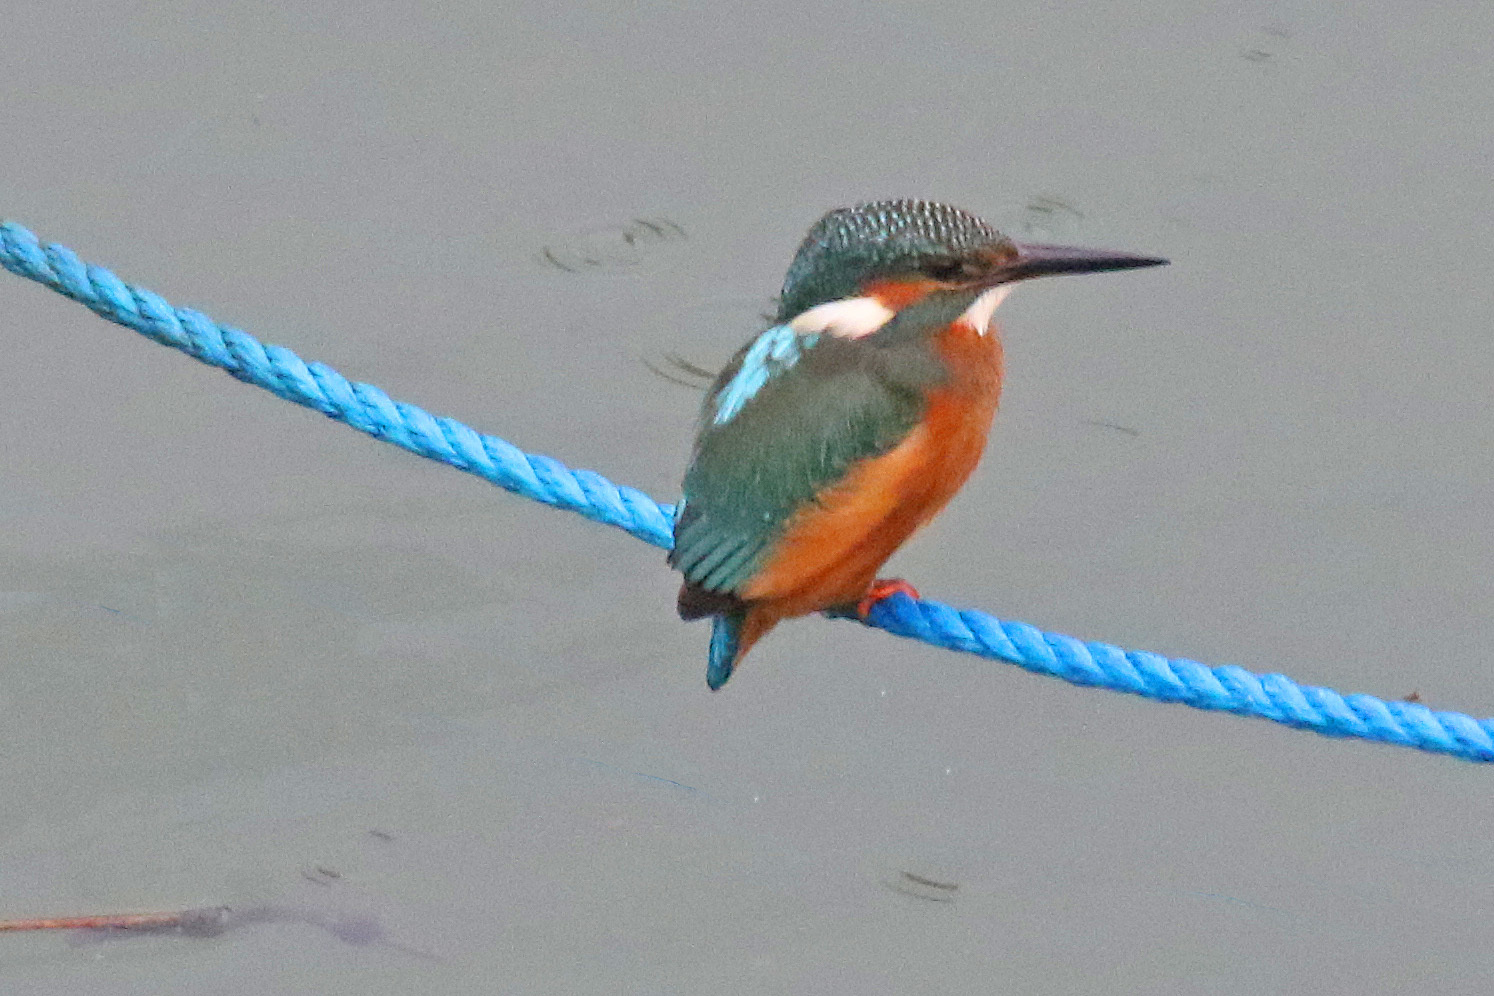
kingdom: Animalia
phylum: Chordata
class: Aves
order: Coraciiformes
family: Alcedinidae
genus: Alcedo
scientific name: Alcedo atthis
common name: Common kingfisher
